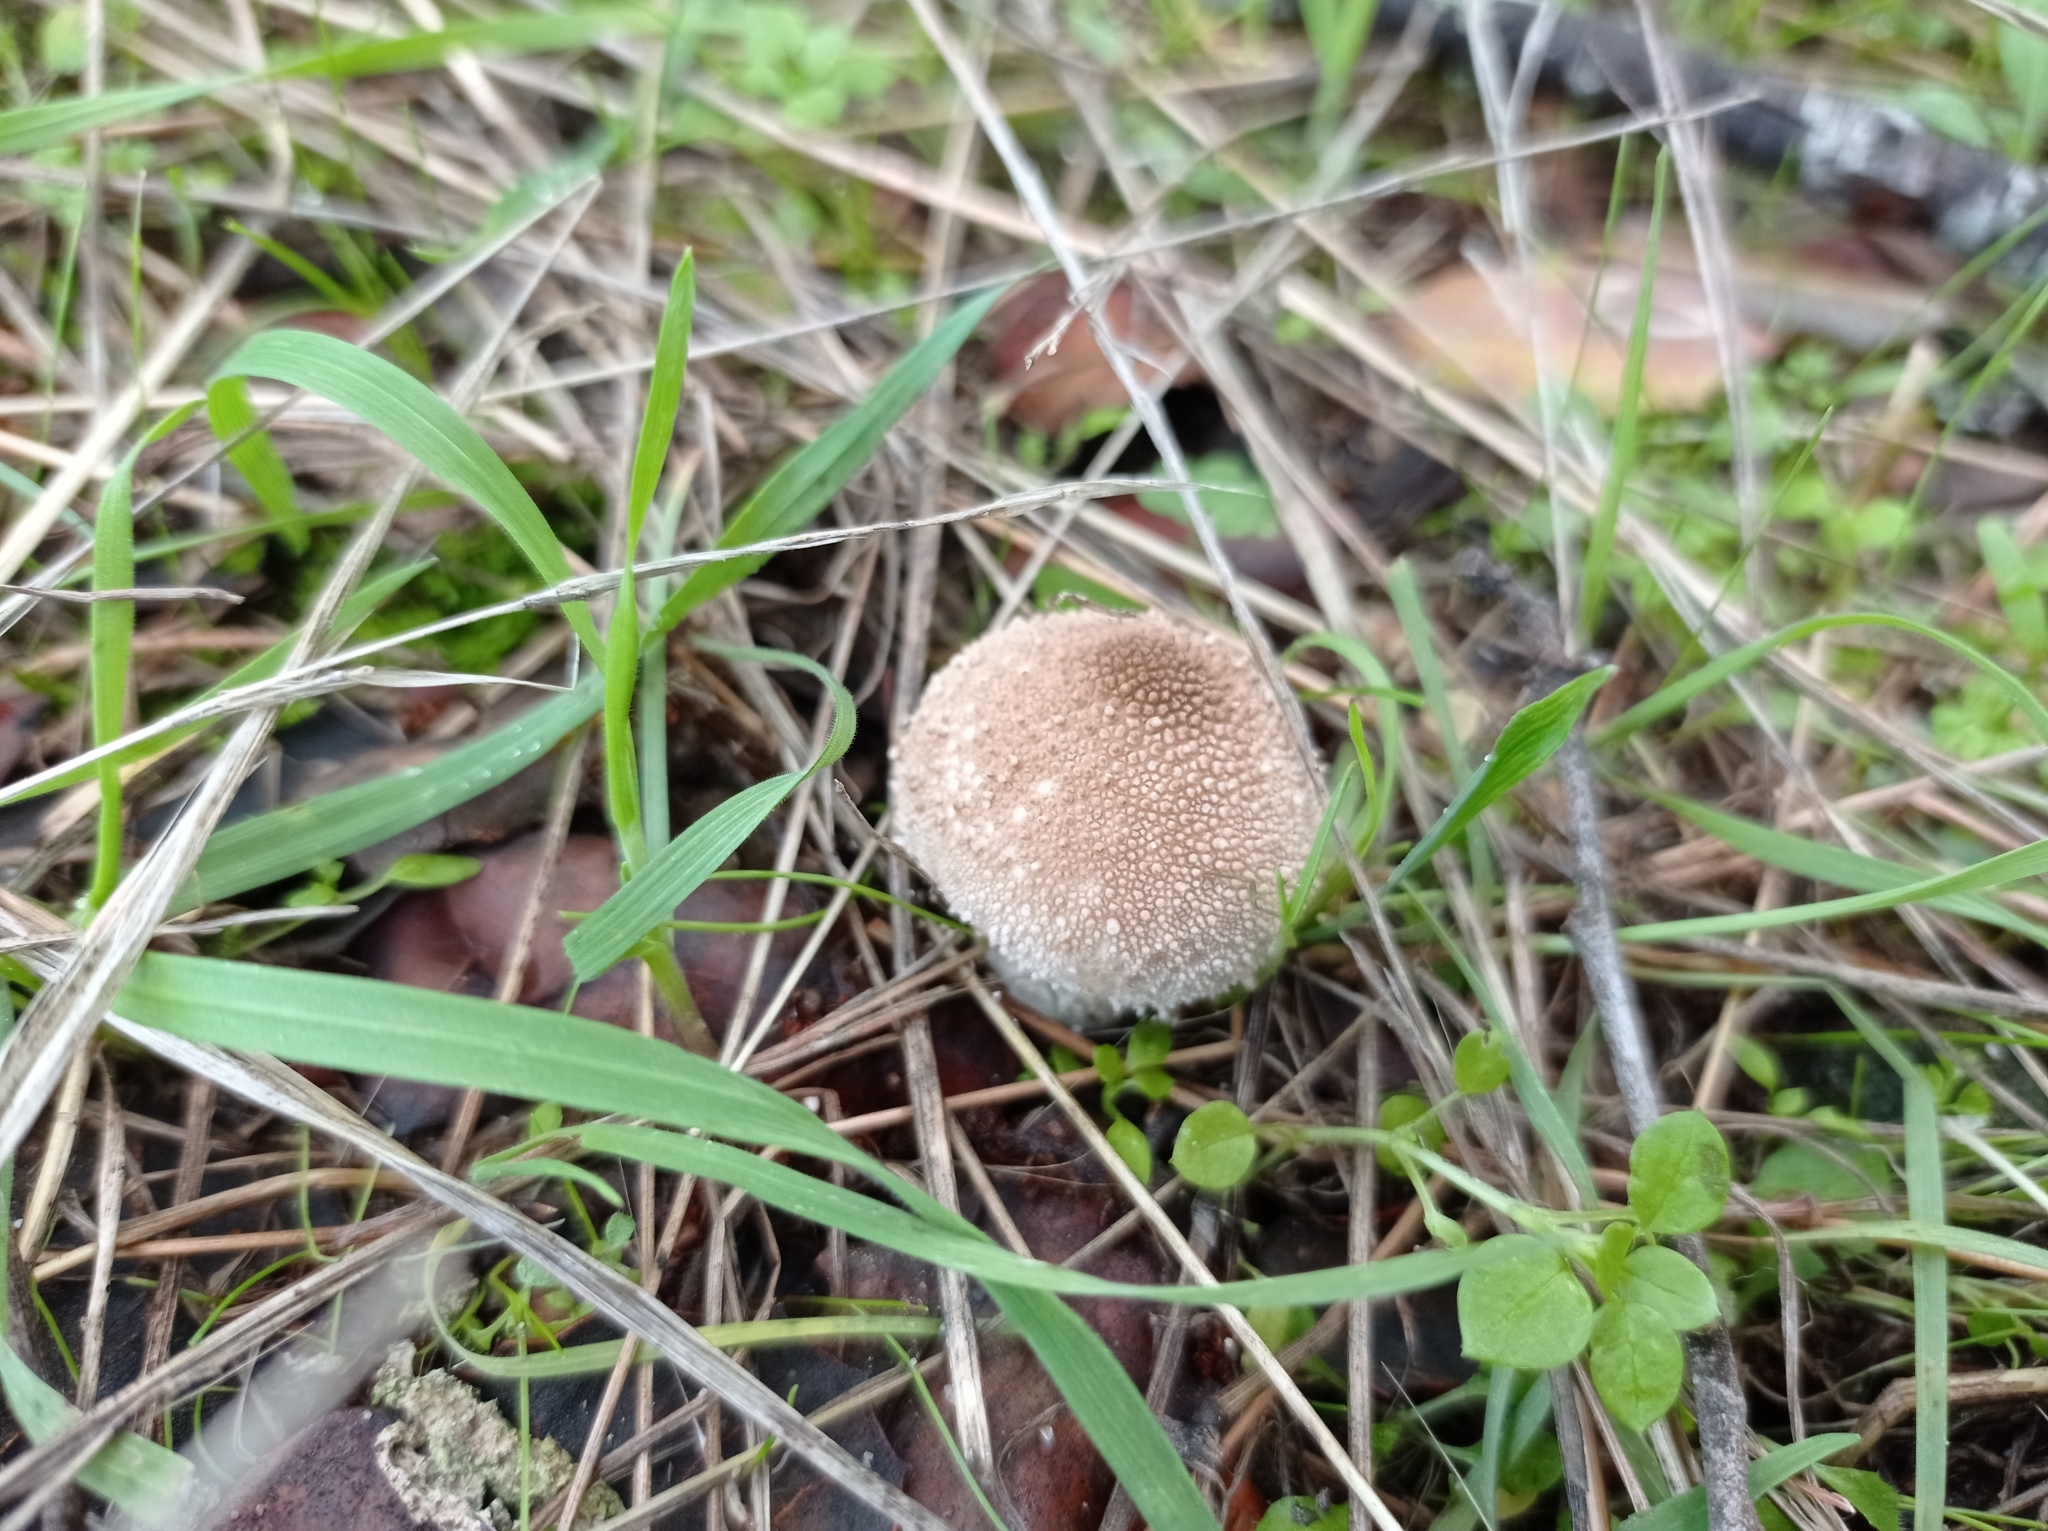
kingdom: Fungi
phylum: Basidiomycota
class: Agaricomycetes
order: Agaricales
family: Lycoperdaceae
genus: Lycoperdon
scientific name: Lycoperdon perlatum
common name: Common puffball
